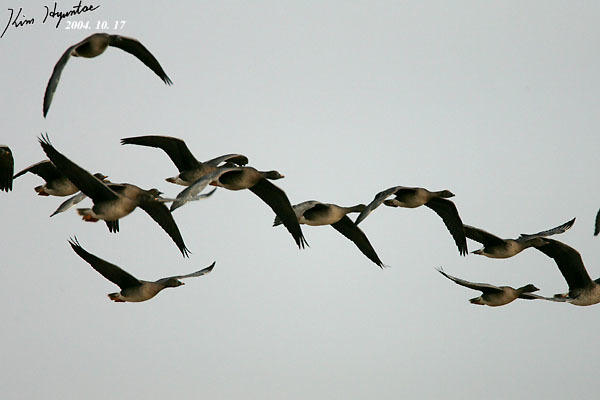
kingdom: Animalia
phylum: Chordata
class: Aves
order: Anseriformes
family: Anatidae
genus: Anser
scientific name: Anser fabalis
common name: Bean goose
